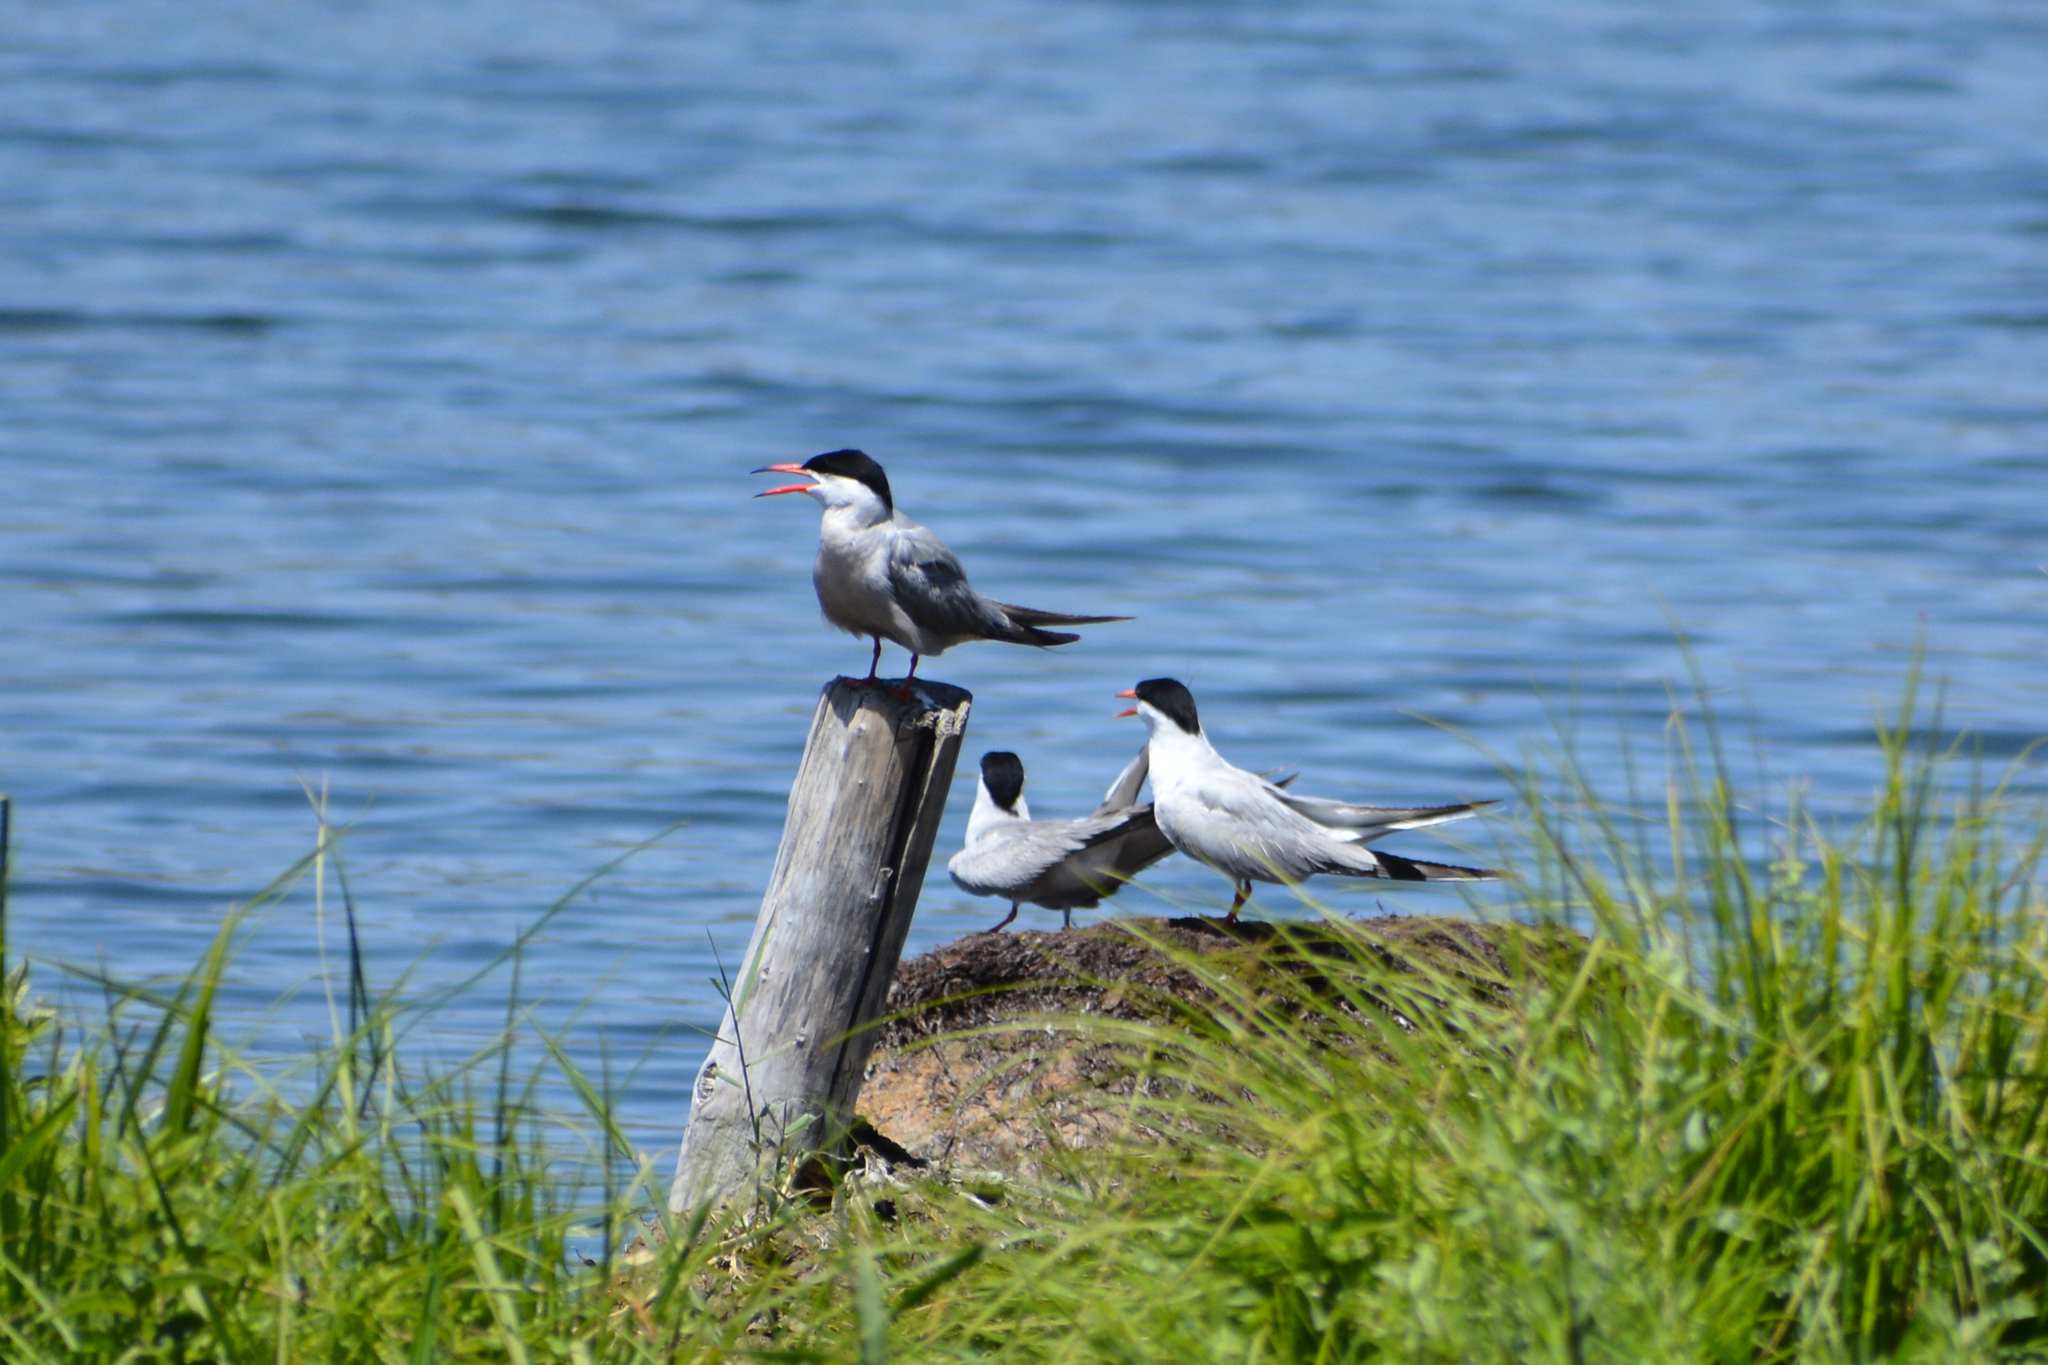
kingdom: Animalia
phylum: Chordata
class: Aves
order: Charadriiformes
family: Laridae
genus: Sterna
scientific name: Sterna hirundo
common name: Common tern
